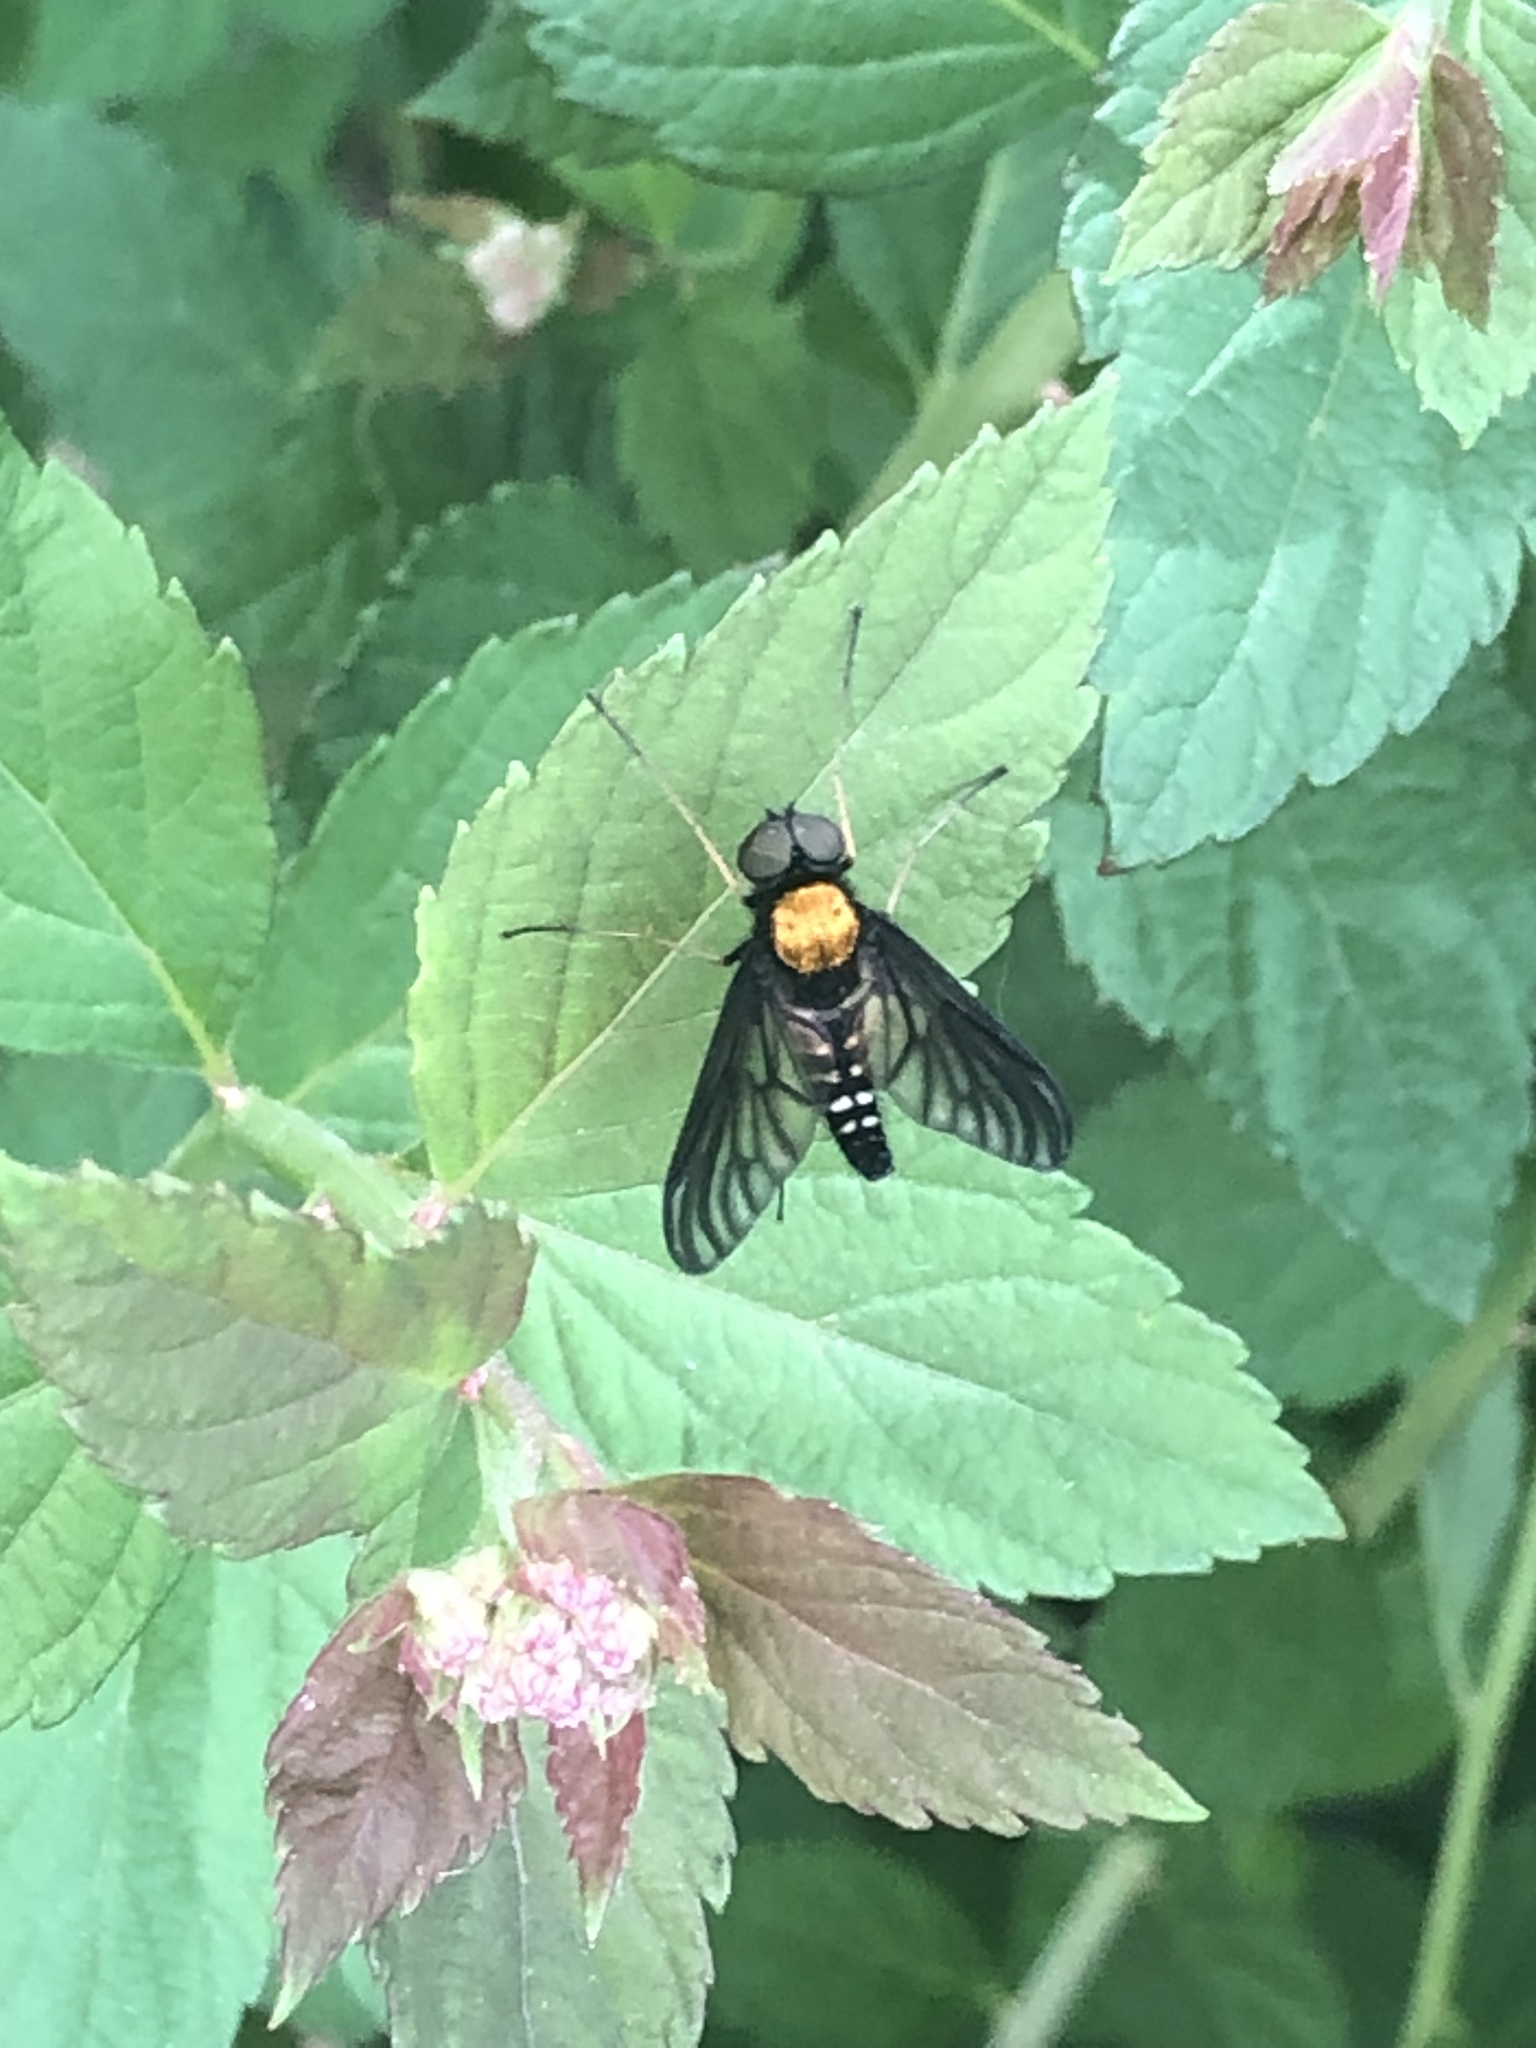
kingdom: Animalia
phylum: Arthropoda
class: Insecta
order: Diptera
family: Rhagionidae
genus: Chrysopilus
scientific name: Chrysopilus thoracicus
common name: Golden-backed snipe fly
